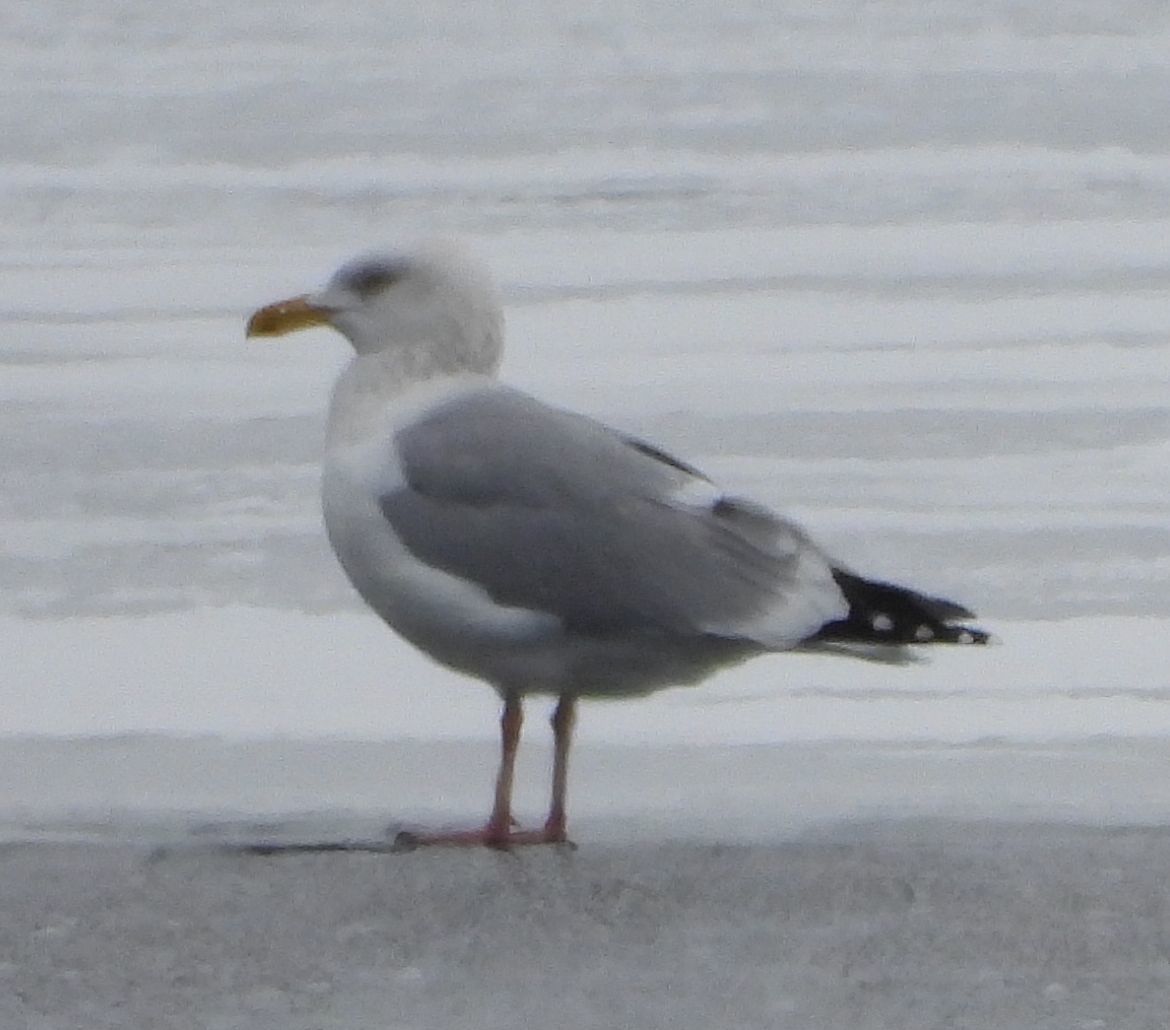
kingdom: Animalia
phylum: Chordata
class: Aves
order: Charadriiformes
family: Laridae
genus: Larus
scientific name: Larus argentatus
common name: Herring gull
